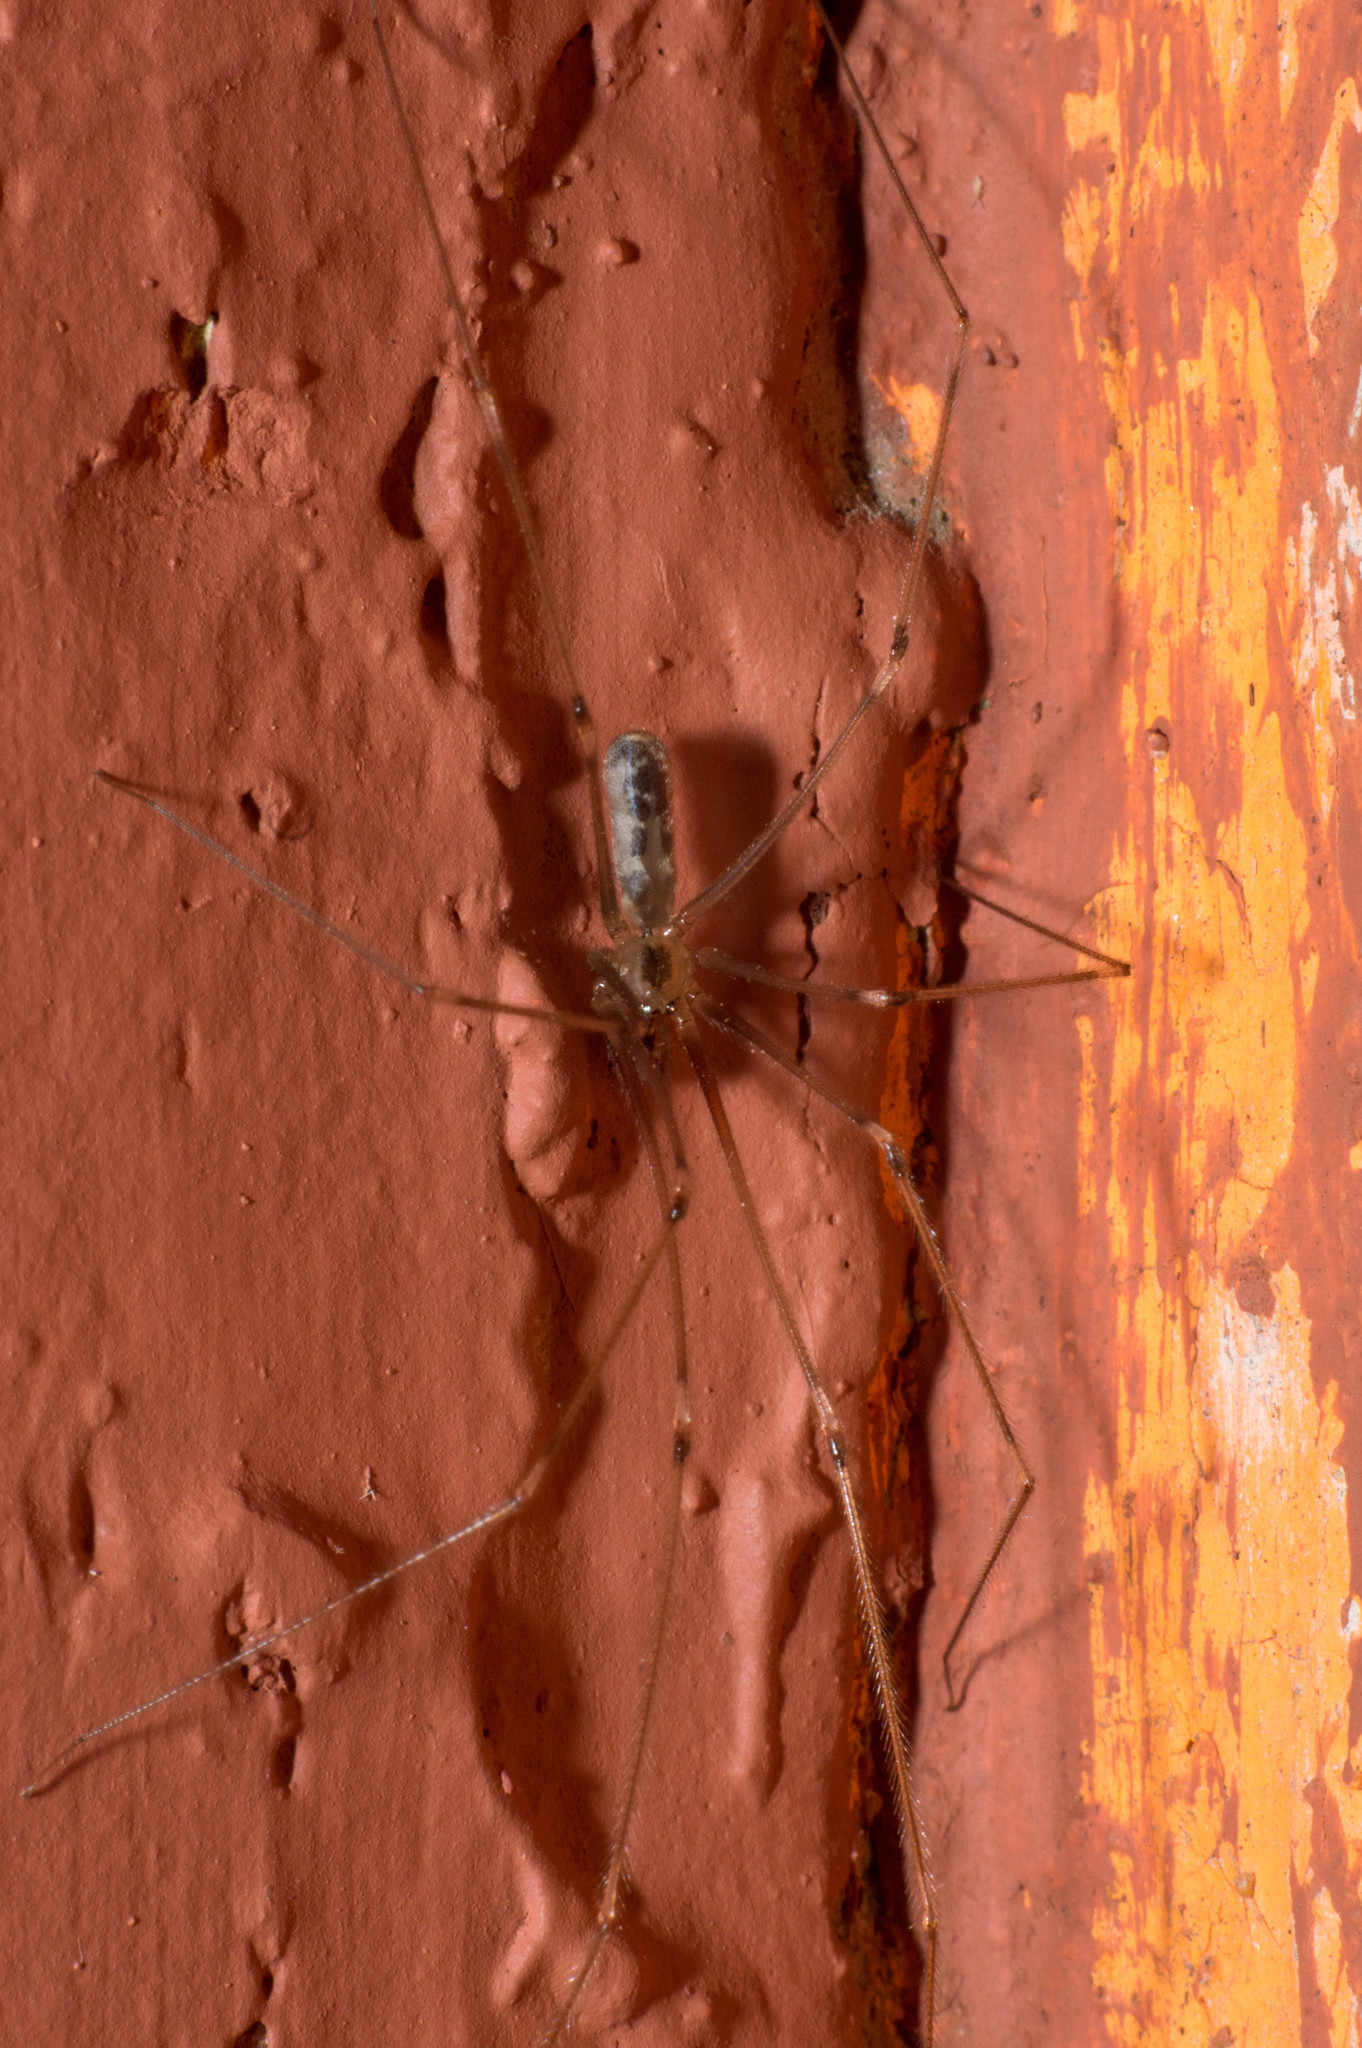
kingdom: Animalia
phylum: Arthropoda
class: Arachnida
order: Araneae
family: Pholcidae
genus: Pholcus
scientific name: Pholcus phalangioides
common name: Longbodied cellar spider
